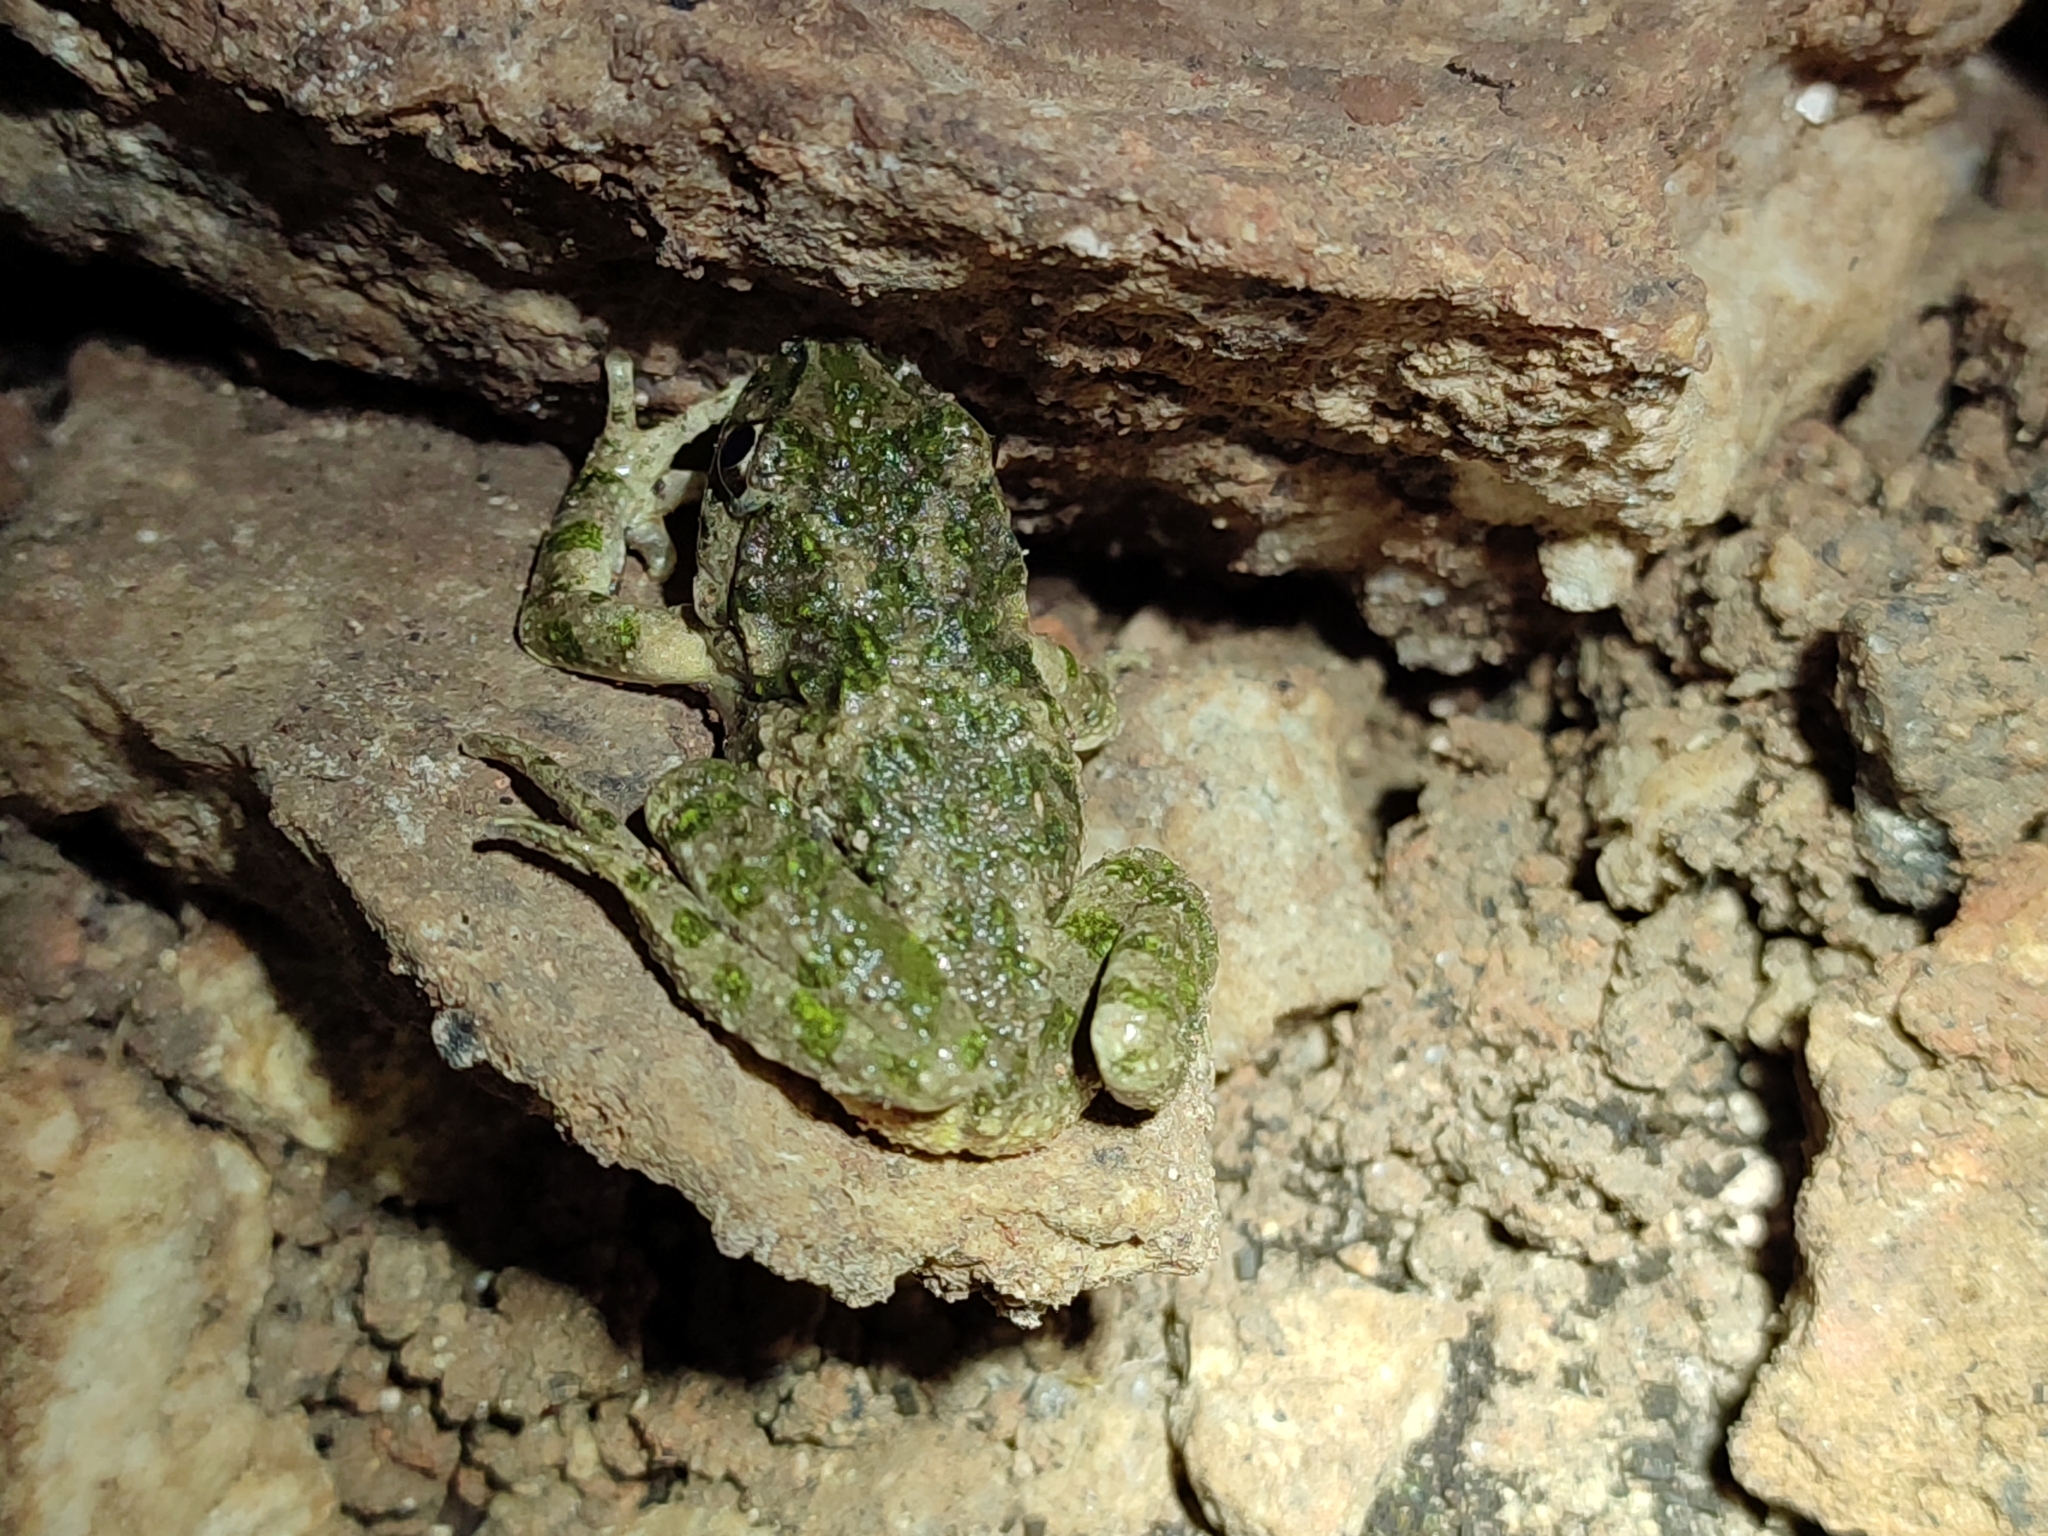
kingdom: Animalia
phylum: Chordata
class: Amphibia
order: Anura
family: Pelodytidae
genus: Pelodytes
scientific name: Pelodytes punctatus
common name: Parsley frog
